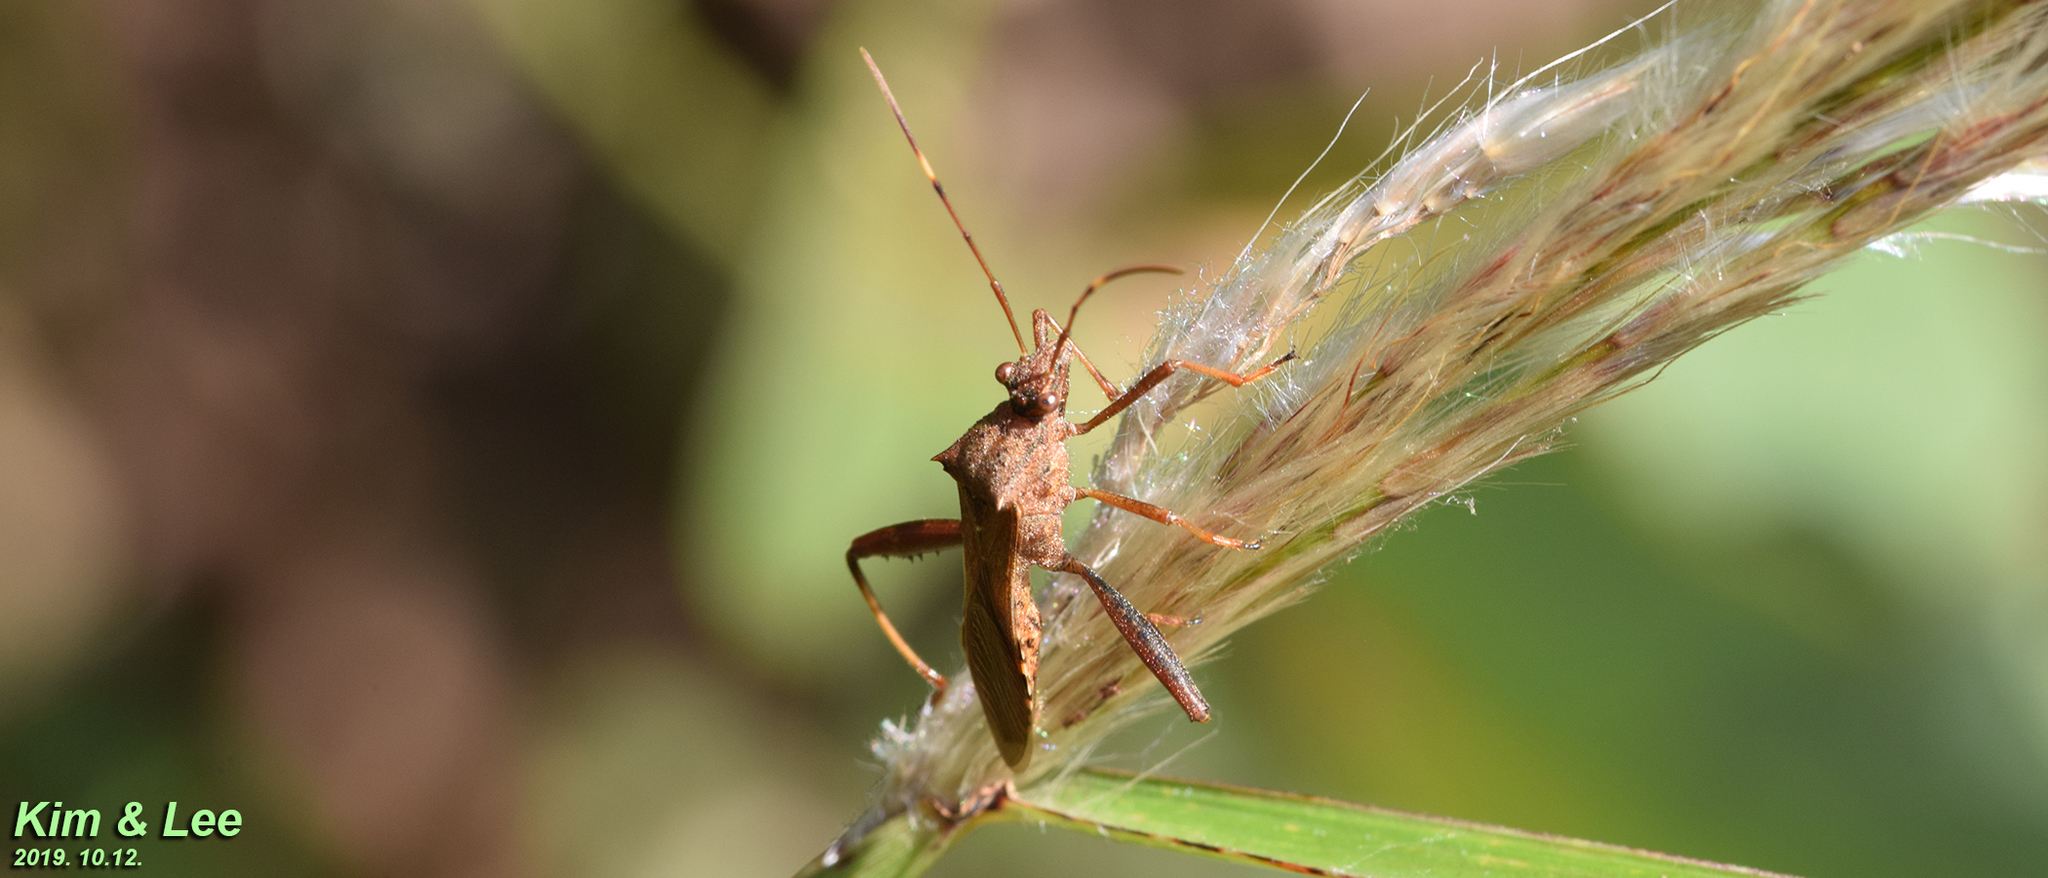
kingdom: Animalia
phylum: Arthropoda
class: Insecta
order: Hemiptera
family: Alydidae
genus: Riptortus
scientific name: Riptortus pedestris
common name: Bean bug
